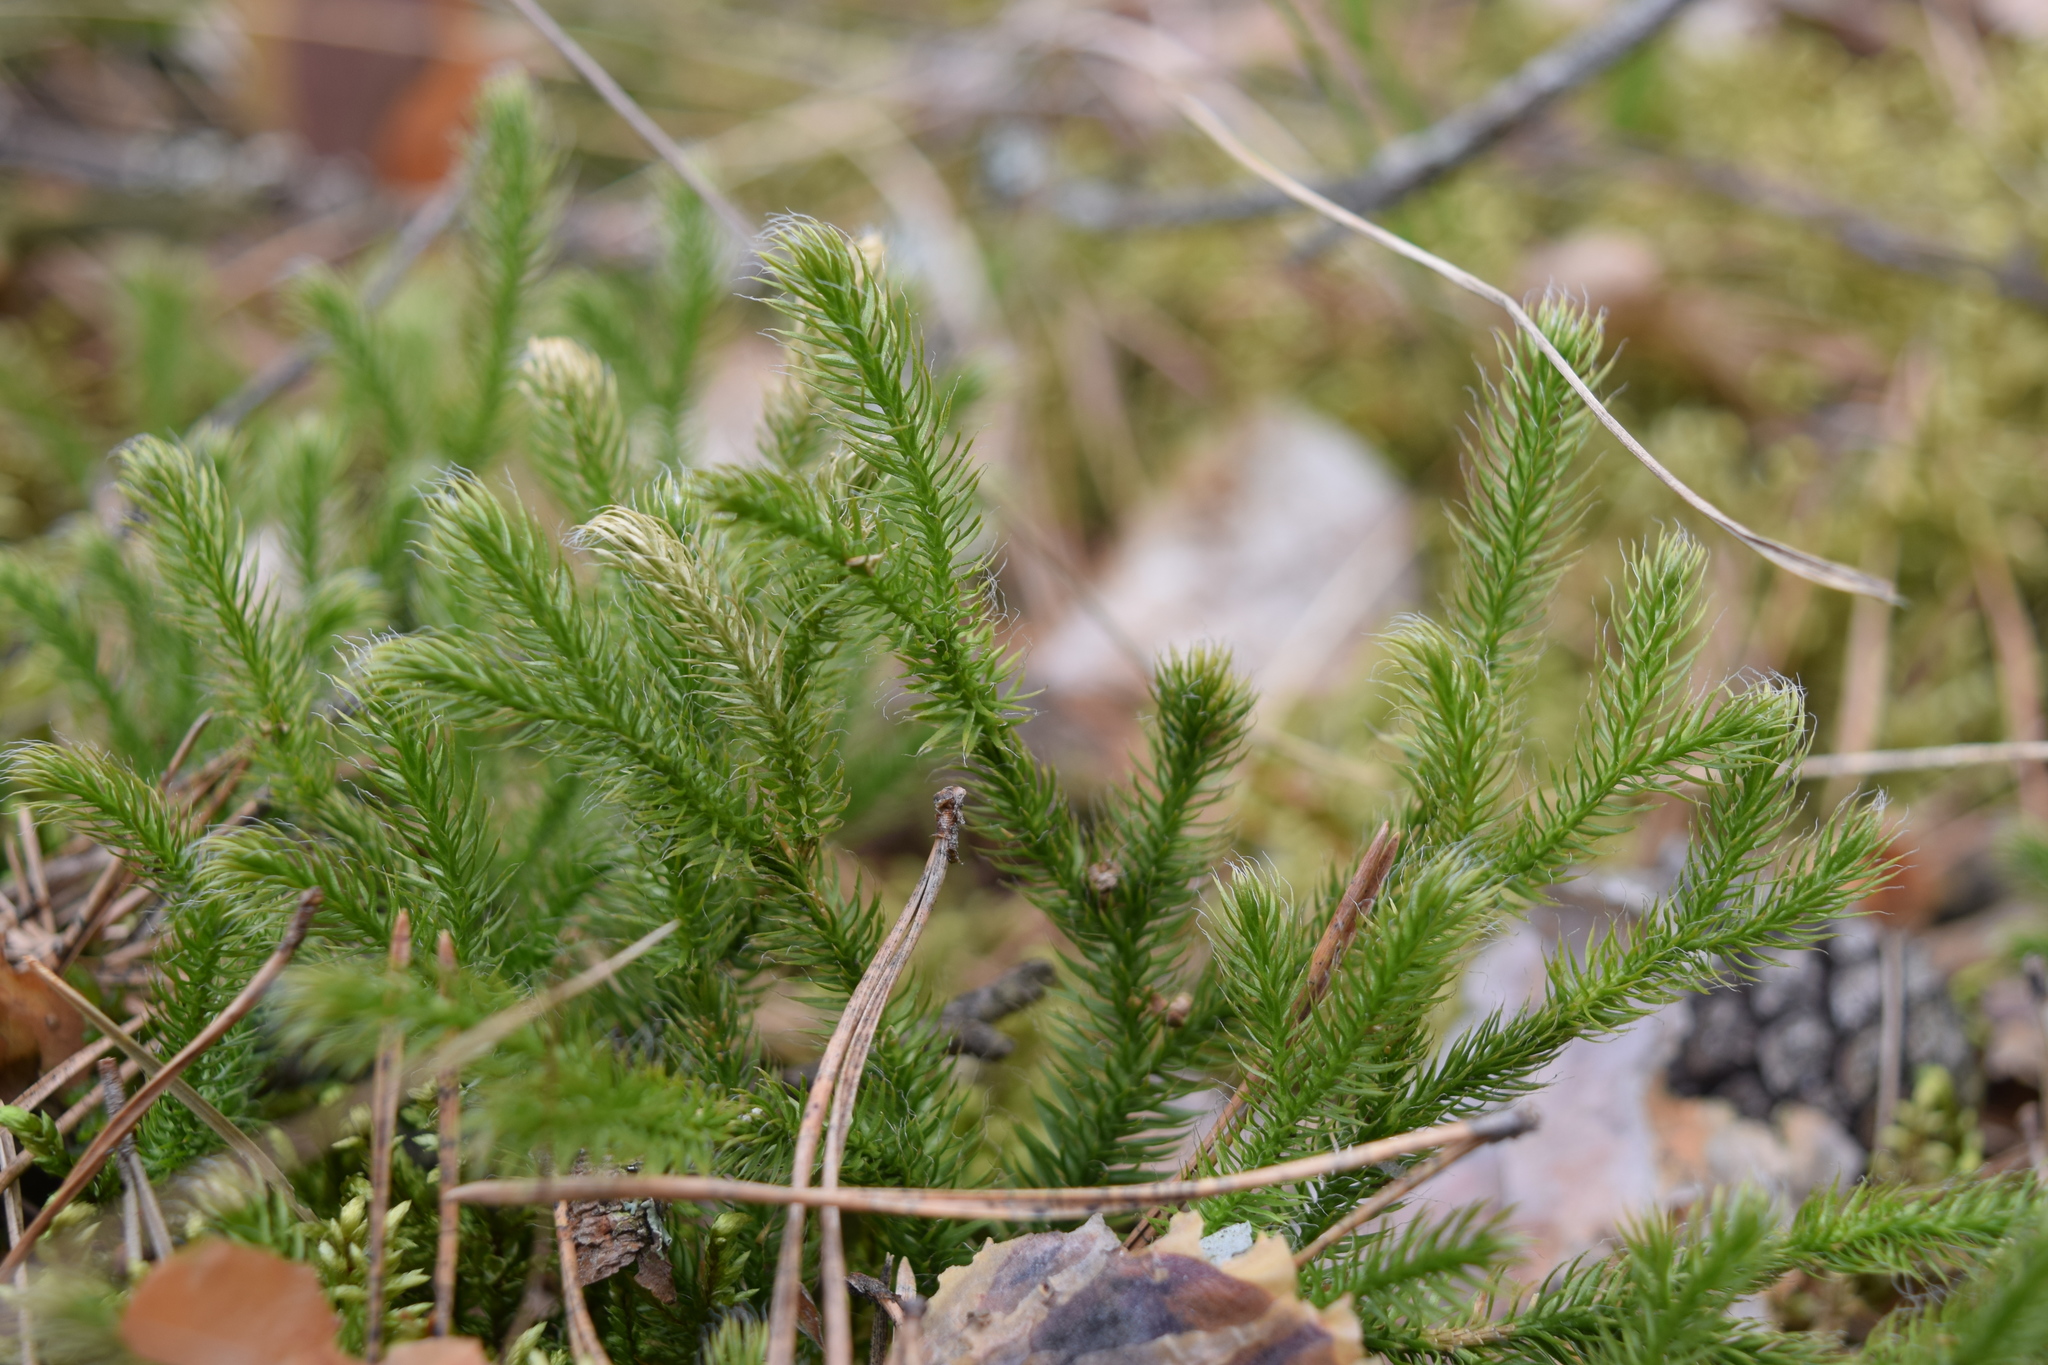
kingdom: Plantae
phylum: Tracheophyta
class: Lycopodiopsida
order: Lycopodiales
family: Lycopodiaceae
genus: Lycopodium
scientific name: Lycopodium clavatum
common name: Stag's-horn clubmoss
